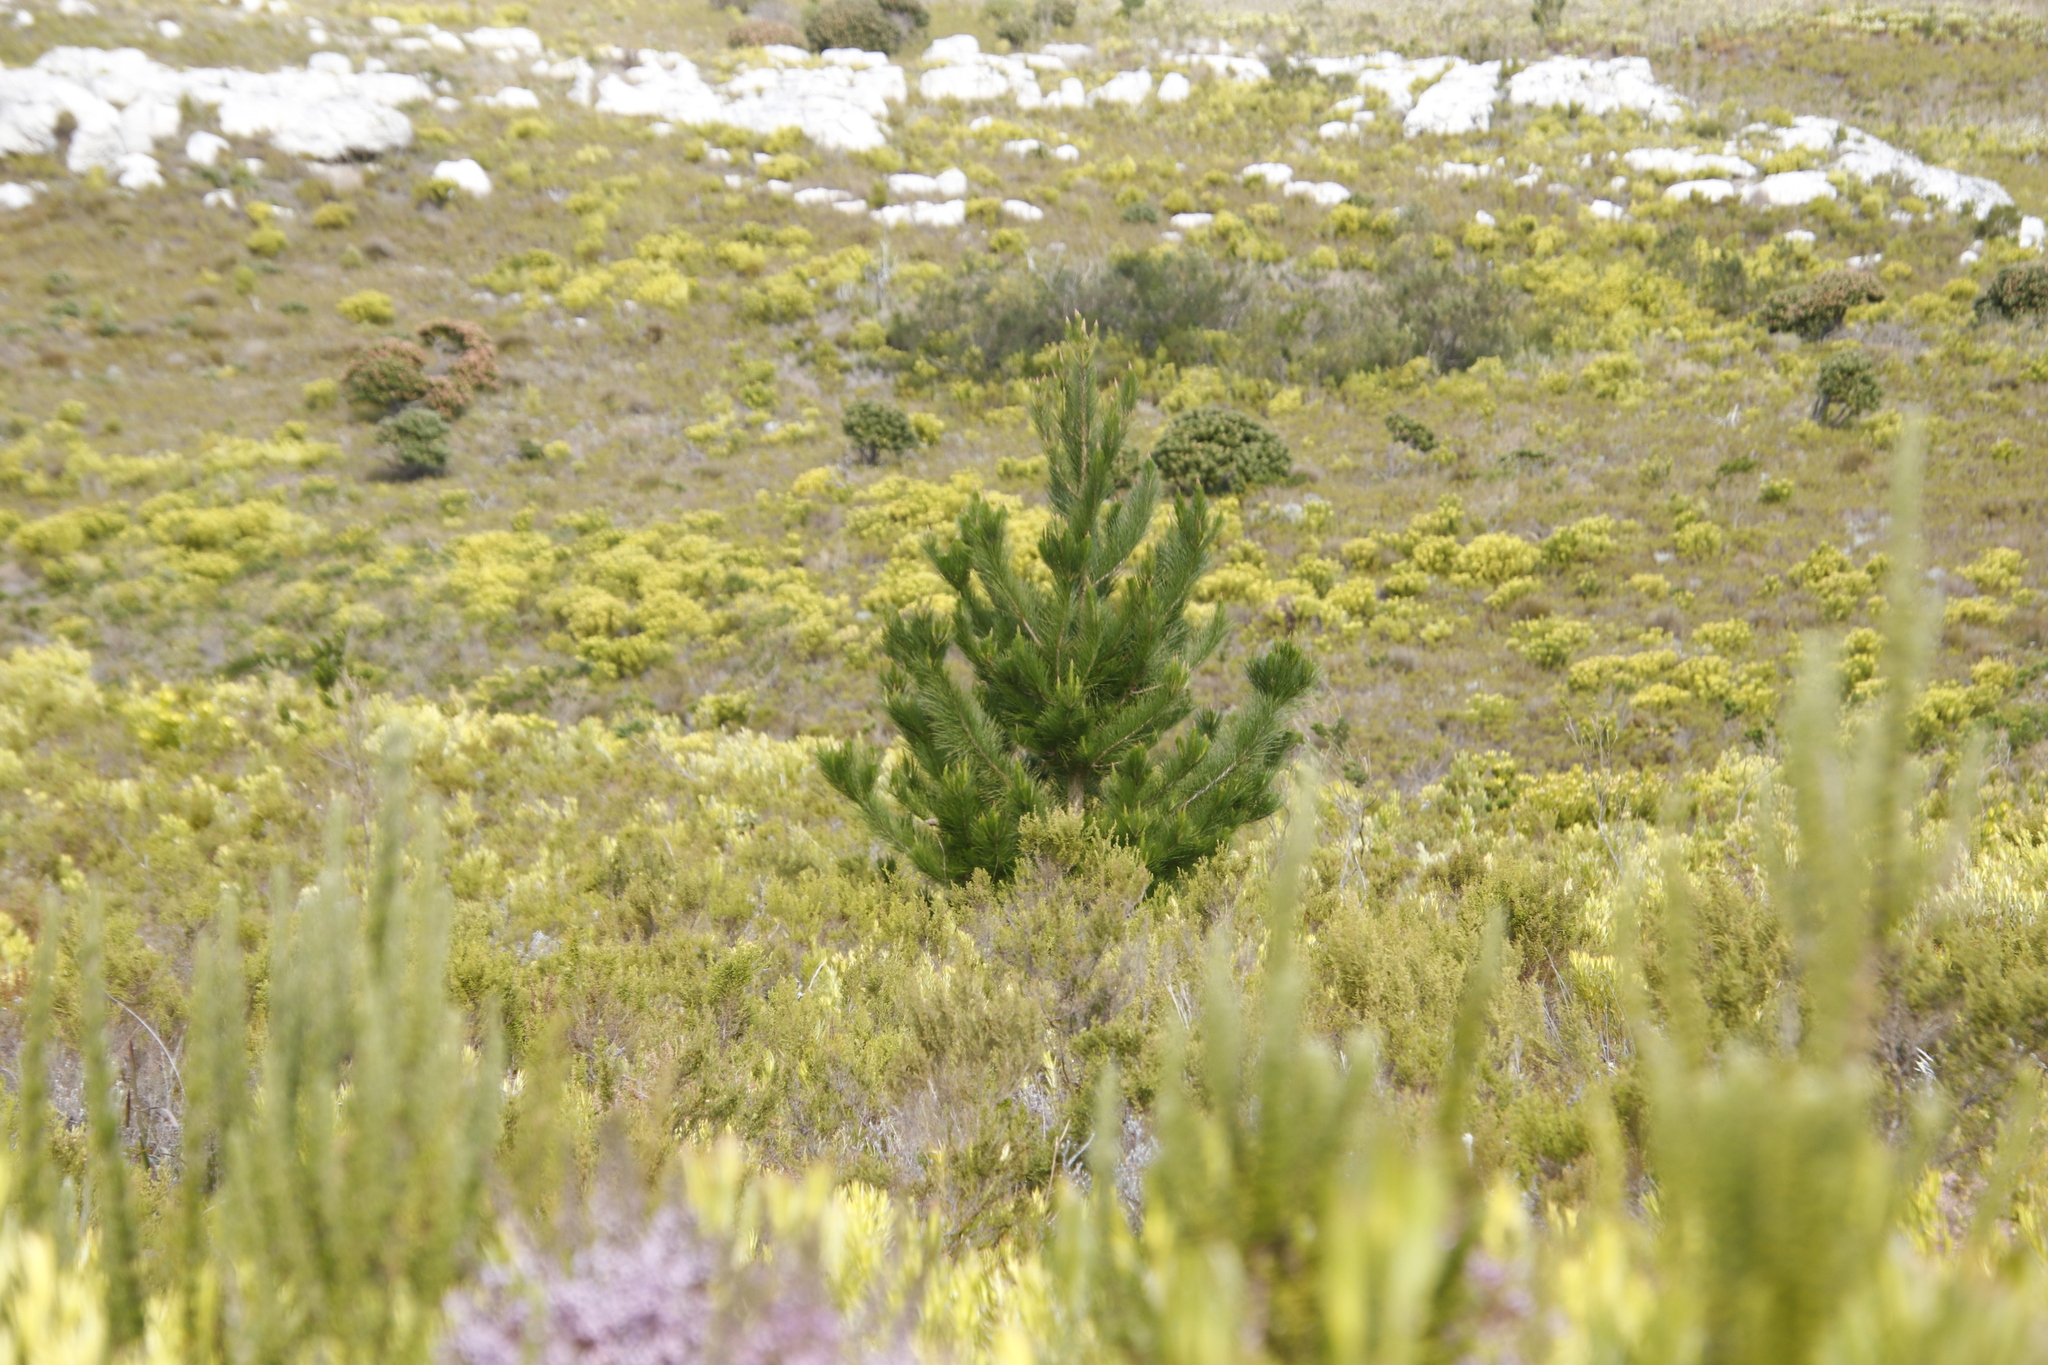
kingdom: Plantae
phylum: Tracheophyta
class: Pinopsida
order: Pinales
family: Pinaceae
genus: Pinus
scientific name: Pinus radiata
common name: Monterey pine
